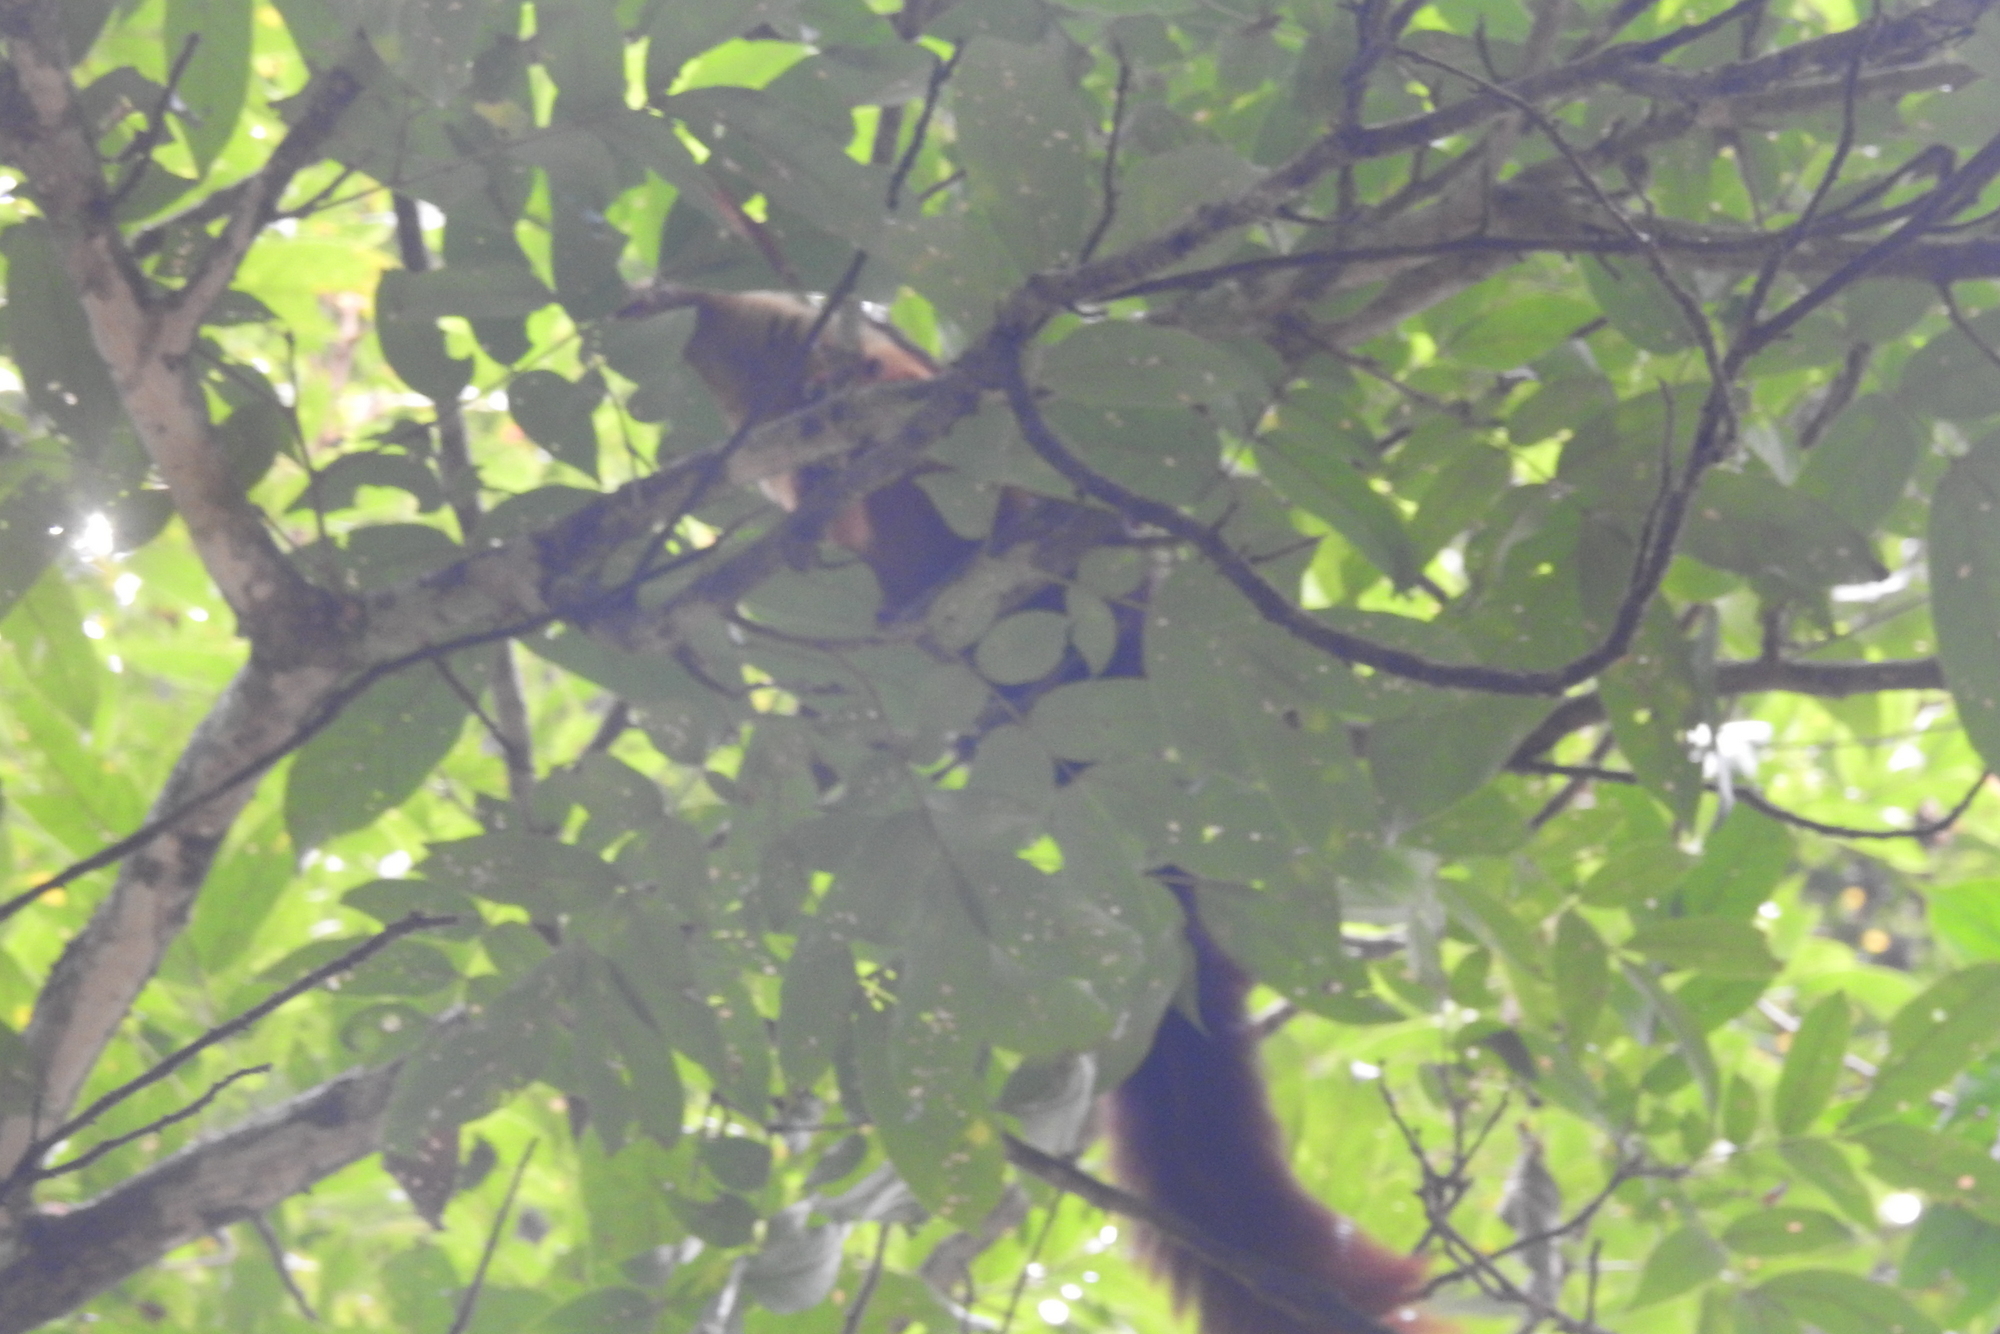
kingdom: Animalia
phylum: Chordata
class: Mammalia
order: Rodentia
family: Sciuridae
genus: Ratufa
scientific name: Ratufa indica
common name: Indian giant squirrel
